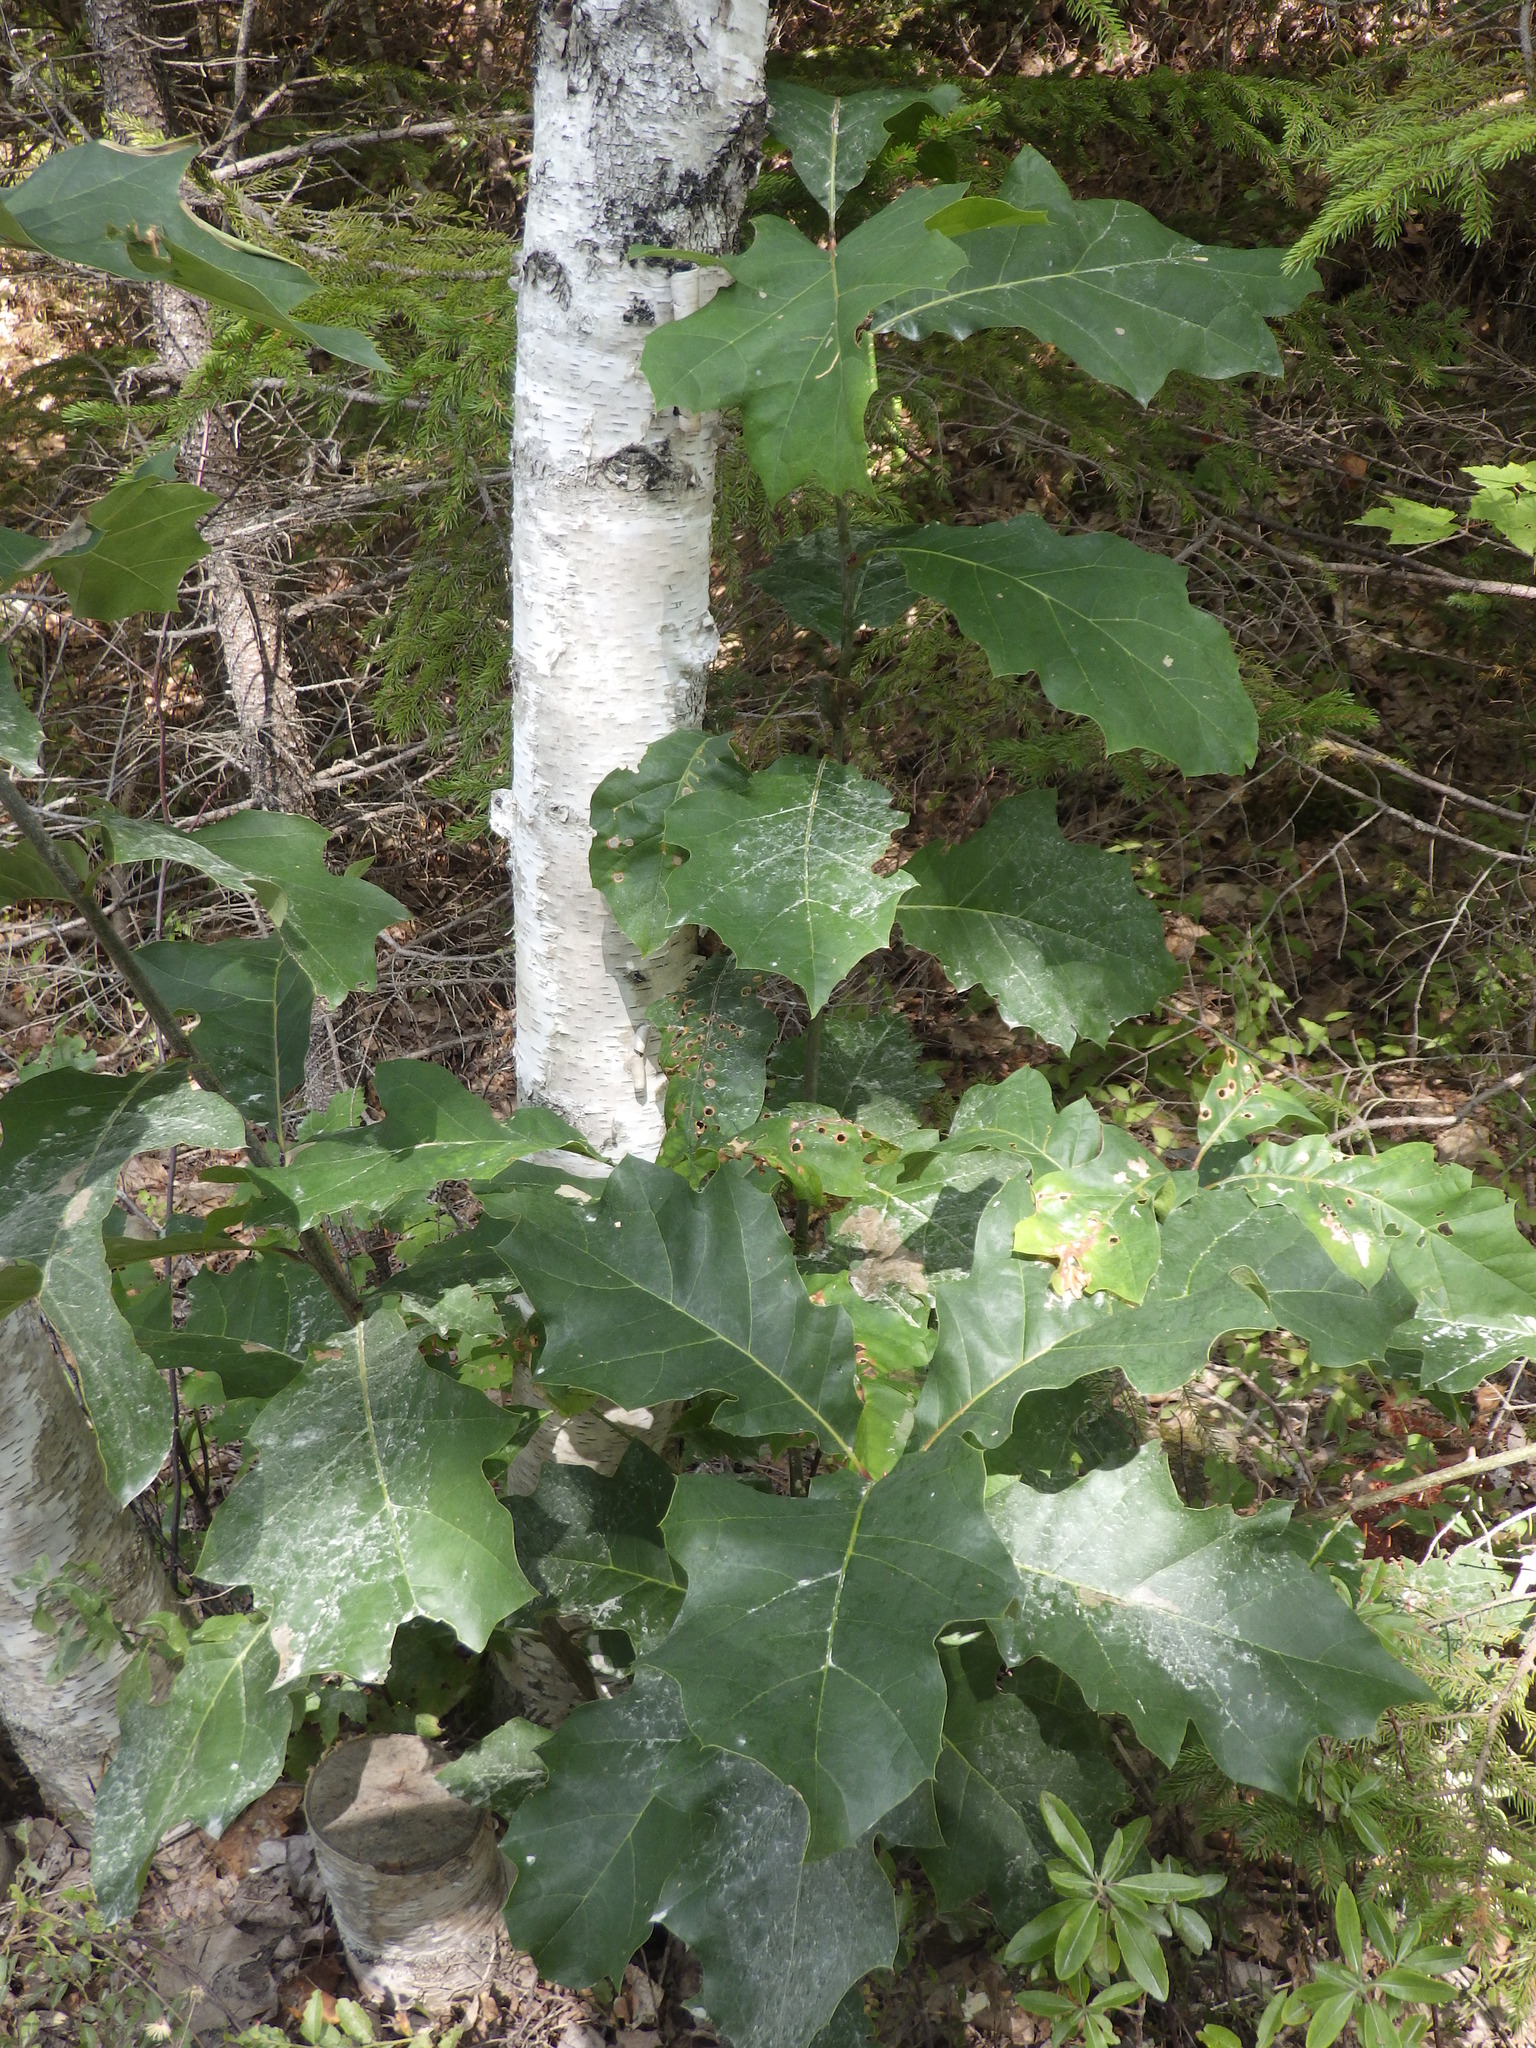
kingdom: Plantae
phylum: Tracheophyta
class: Magnoliopsida
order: Fagales
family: Fagaceae
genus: Quercus
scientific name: Quercus rubra
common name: Red oak
